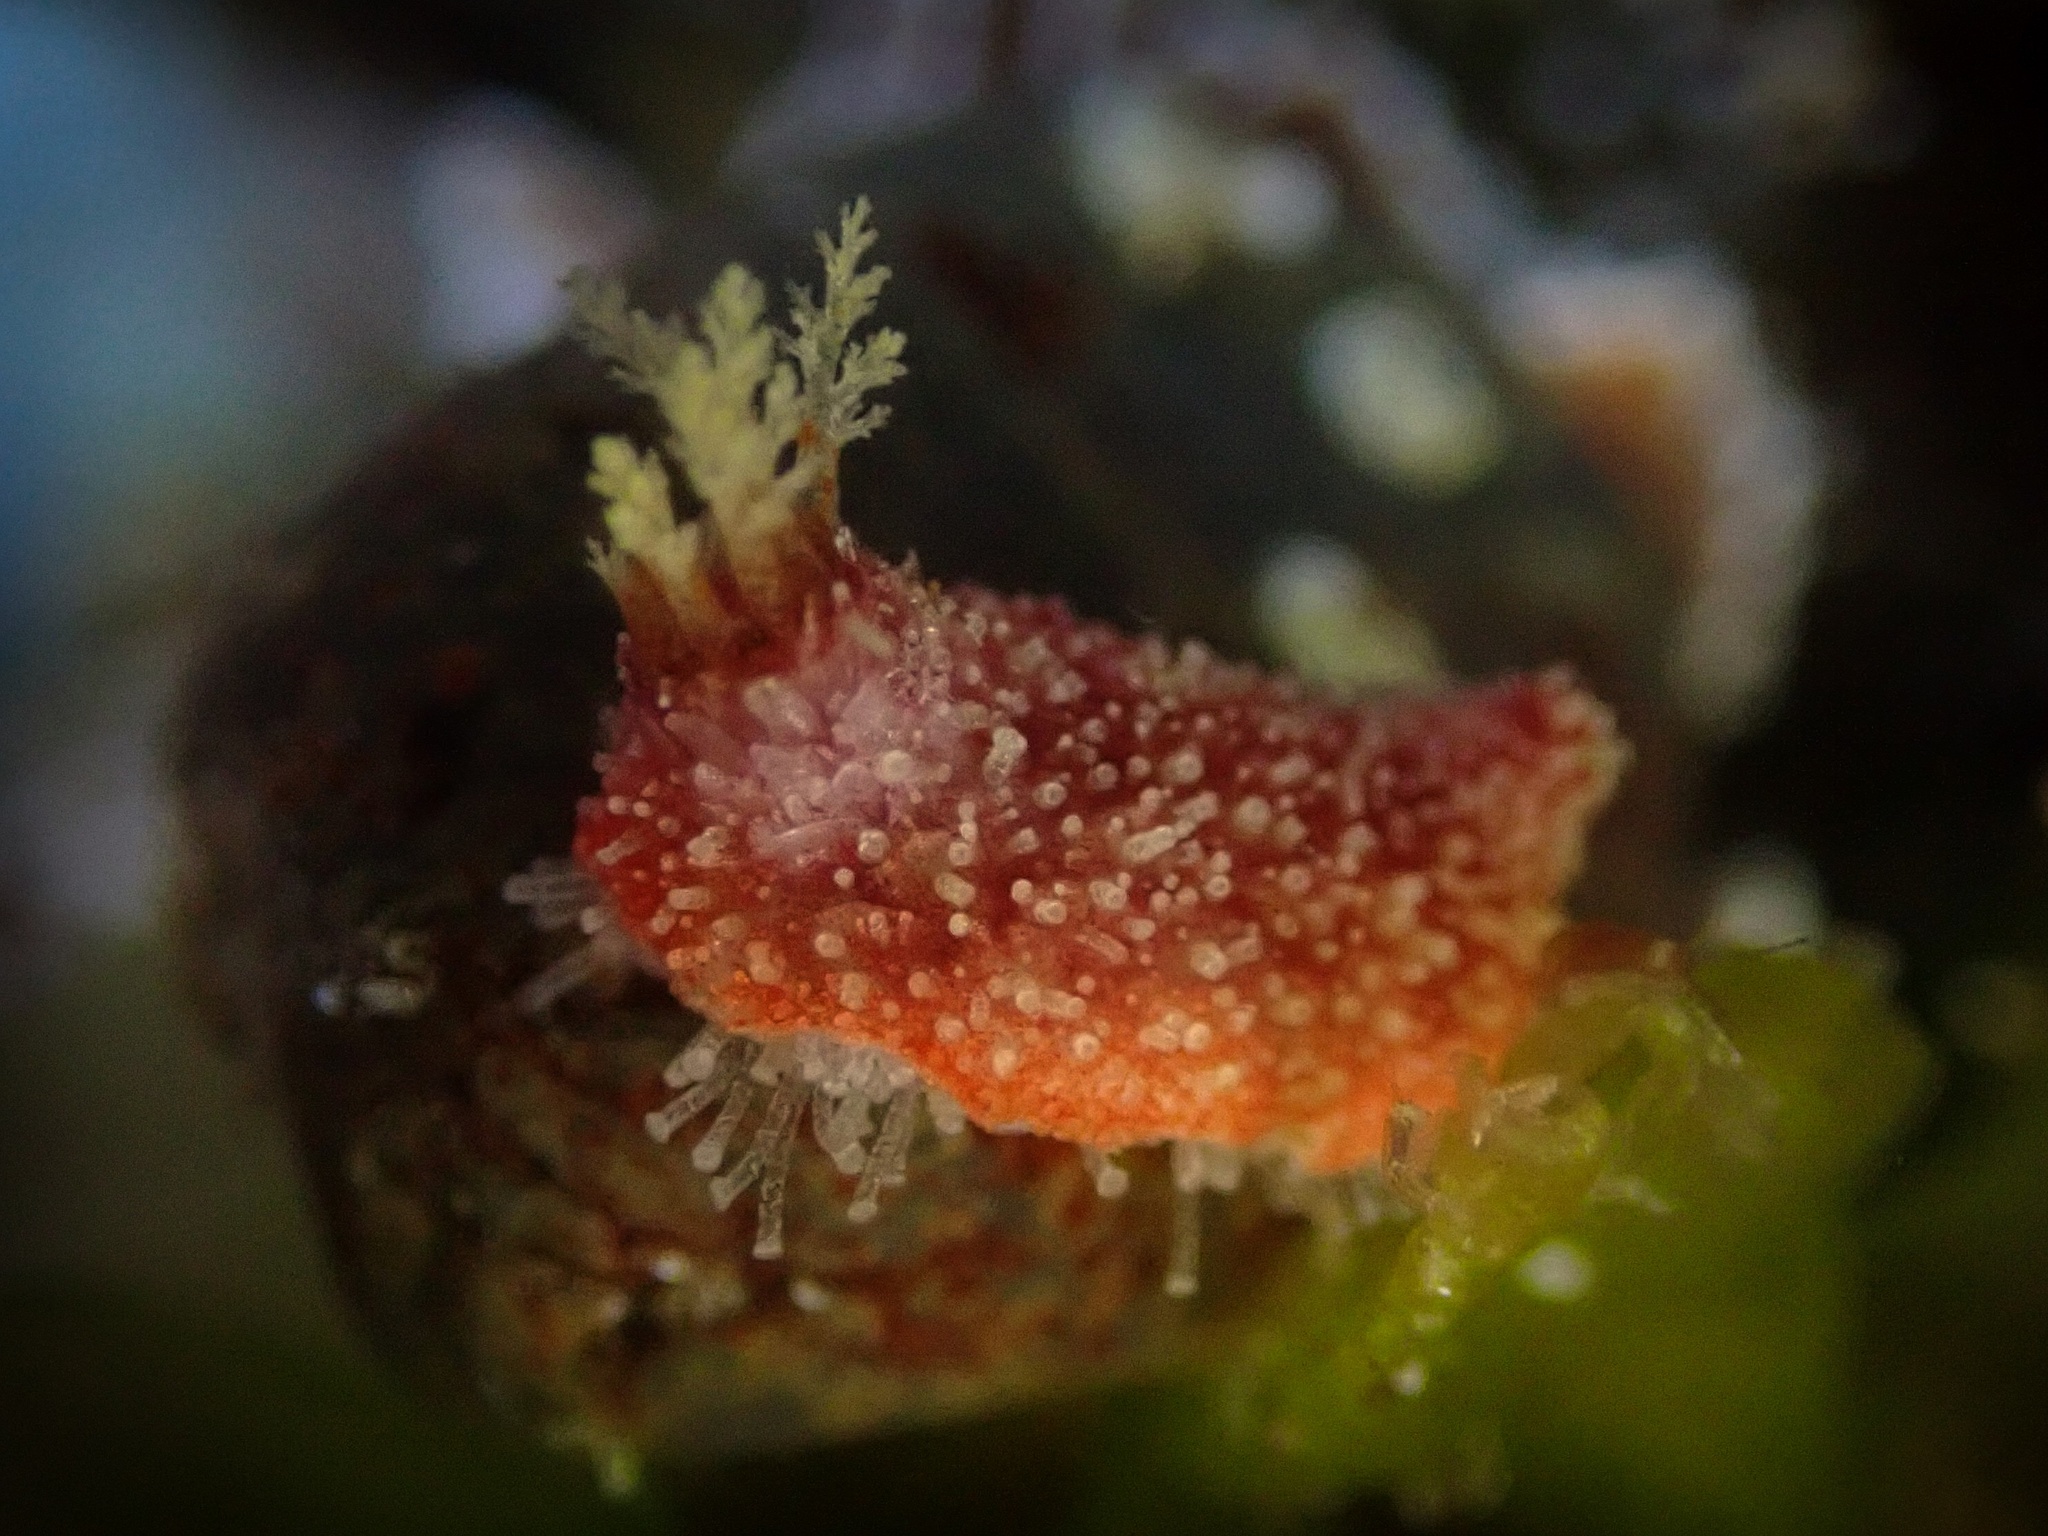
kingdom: Animalia
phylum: Echinodermata
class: Holothuroidea
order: Dendrochirotida
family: Psolidae
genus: Lissothuria
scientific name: Lissothuria nutriens
